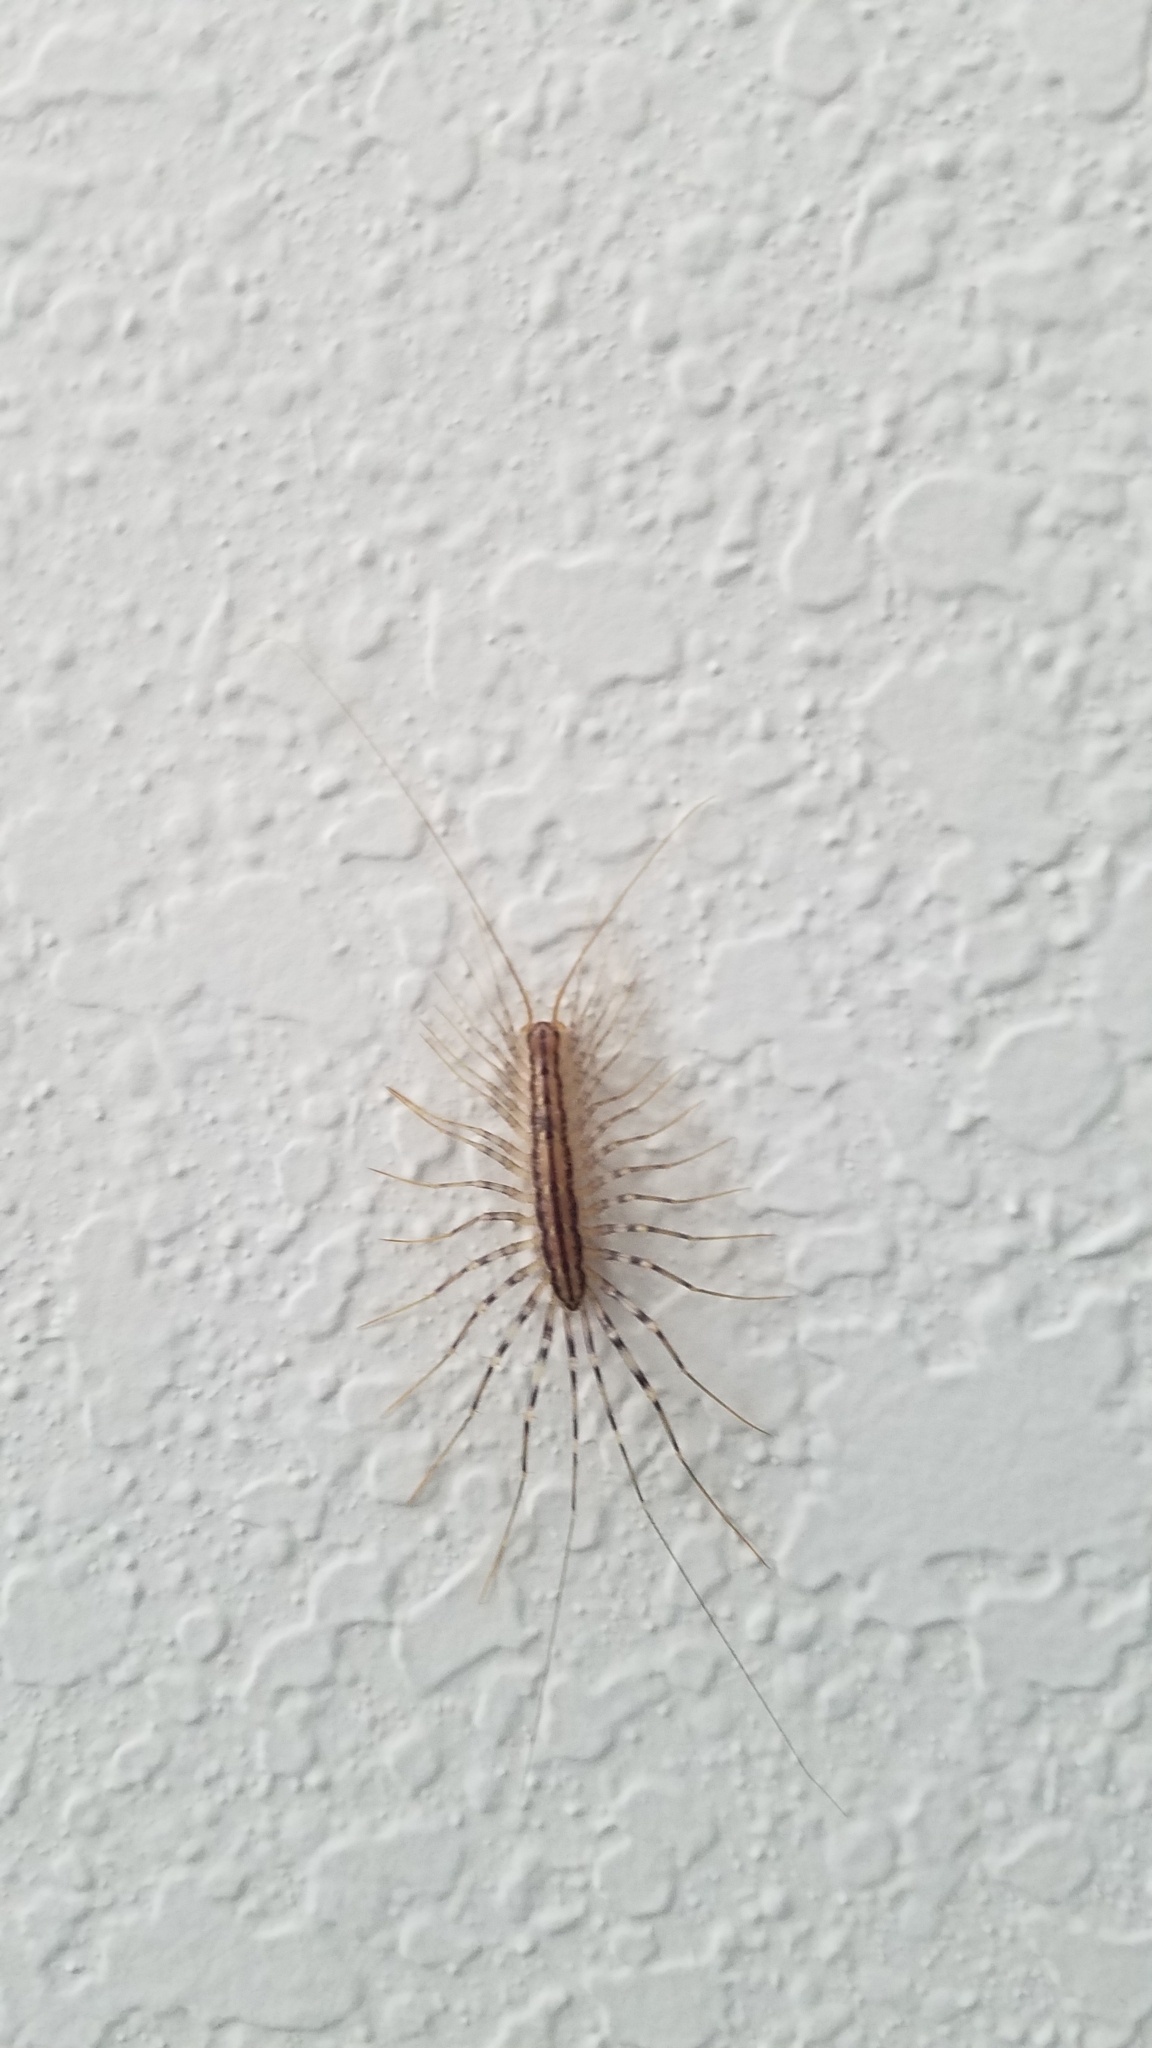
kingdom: Animalia
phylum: Arthropoda
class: Chilopoda
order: Scutigeromorpha
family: Scutigeridae
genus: Scutigera
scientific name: Scutigera coleoptrata
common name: House centipede
